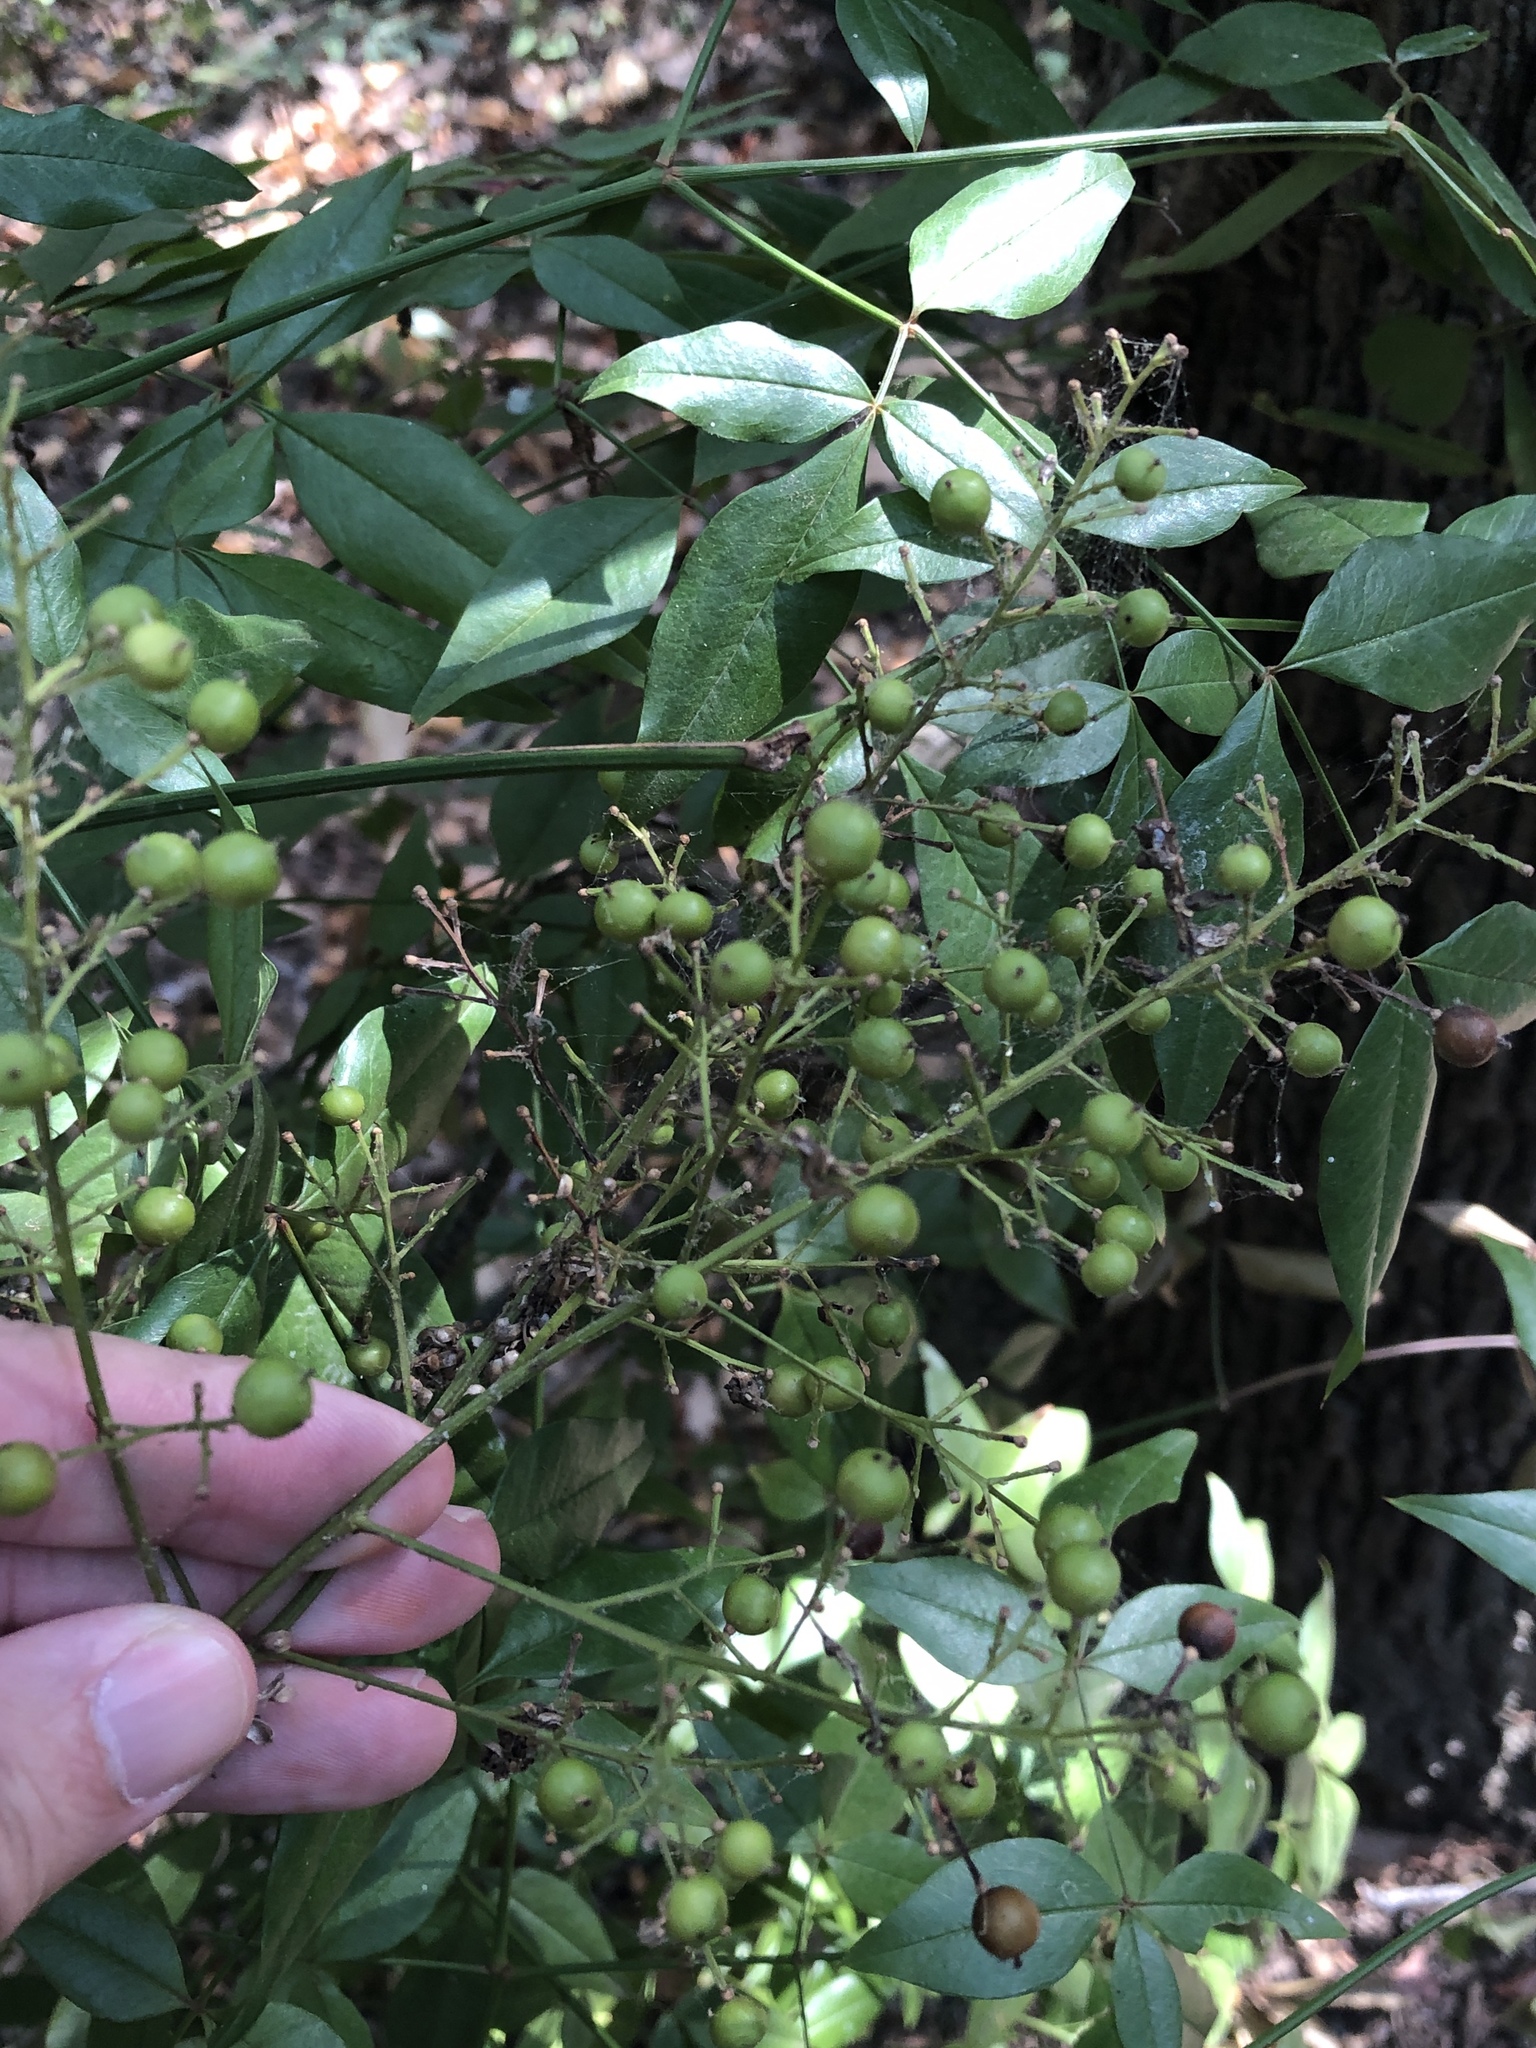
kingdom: Plantae
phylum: Tracheophyta
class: Magnoliopsida
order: Ranunculales
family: Berberidaceae
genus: Nandina
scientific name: Nandina domestica
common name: Sacred bamboo
